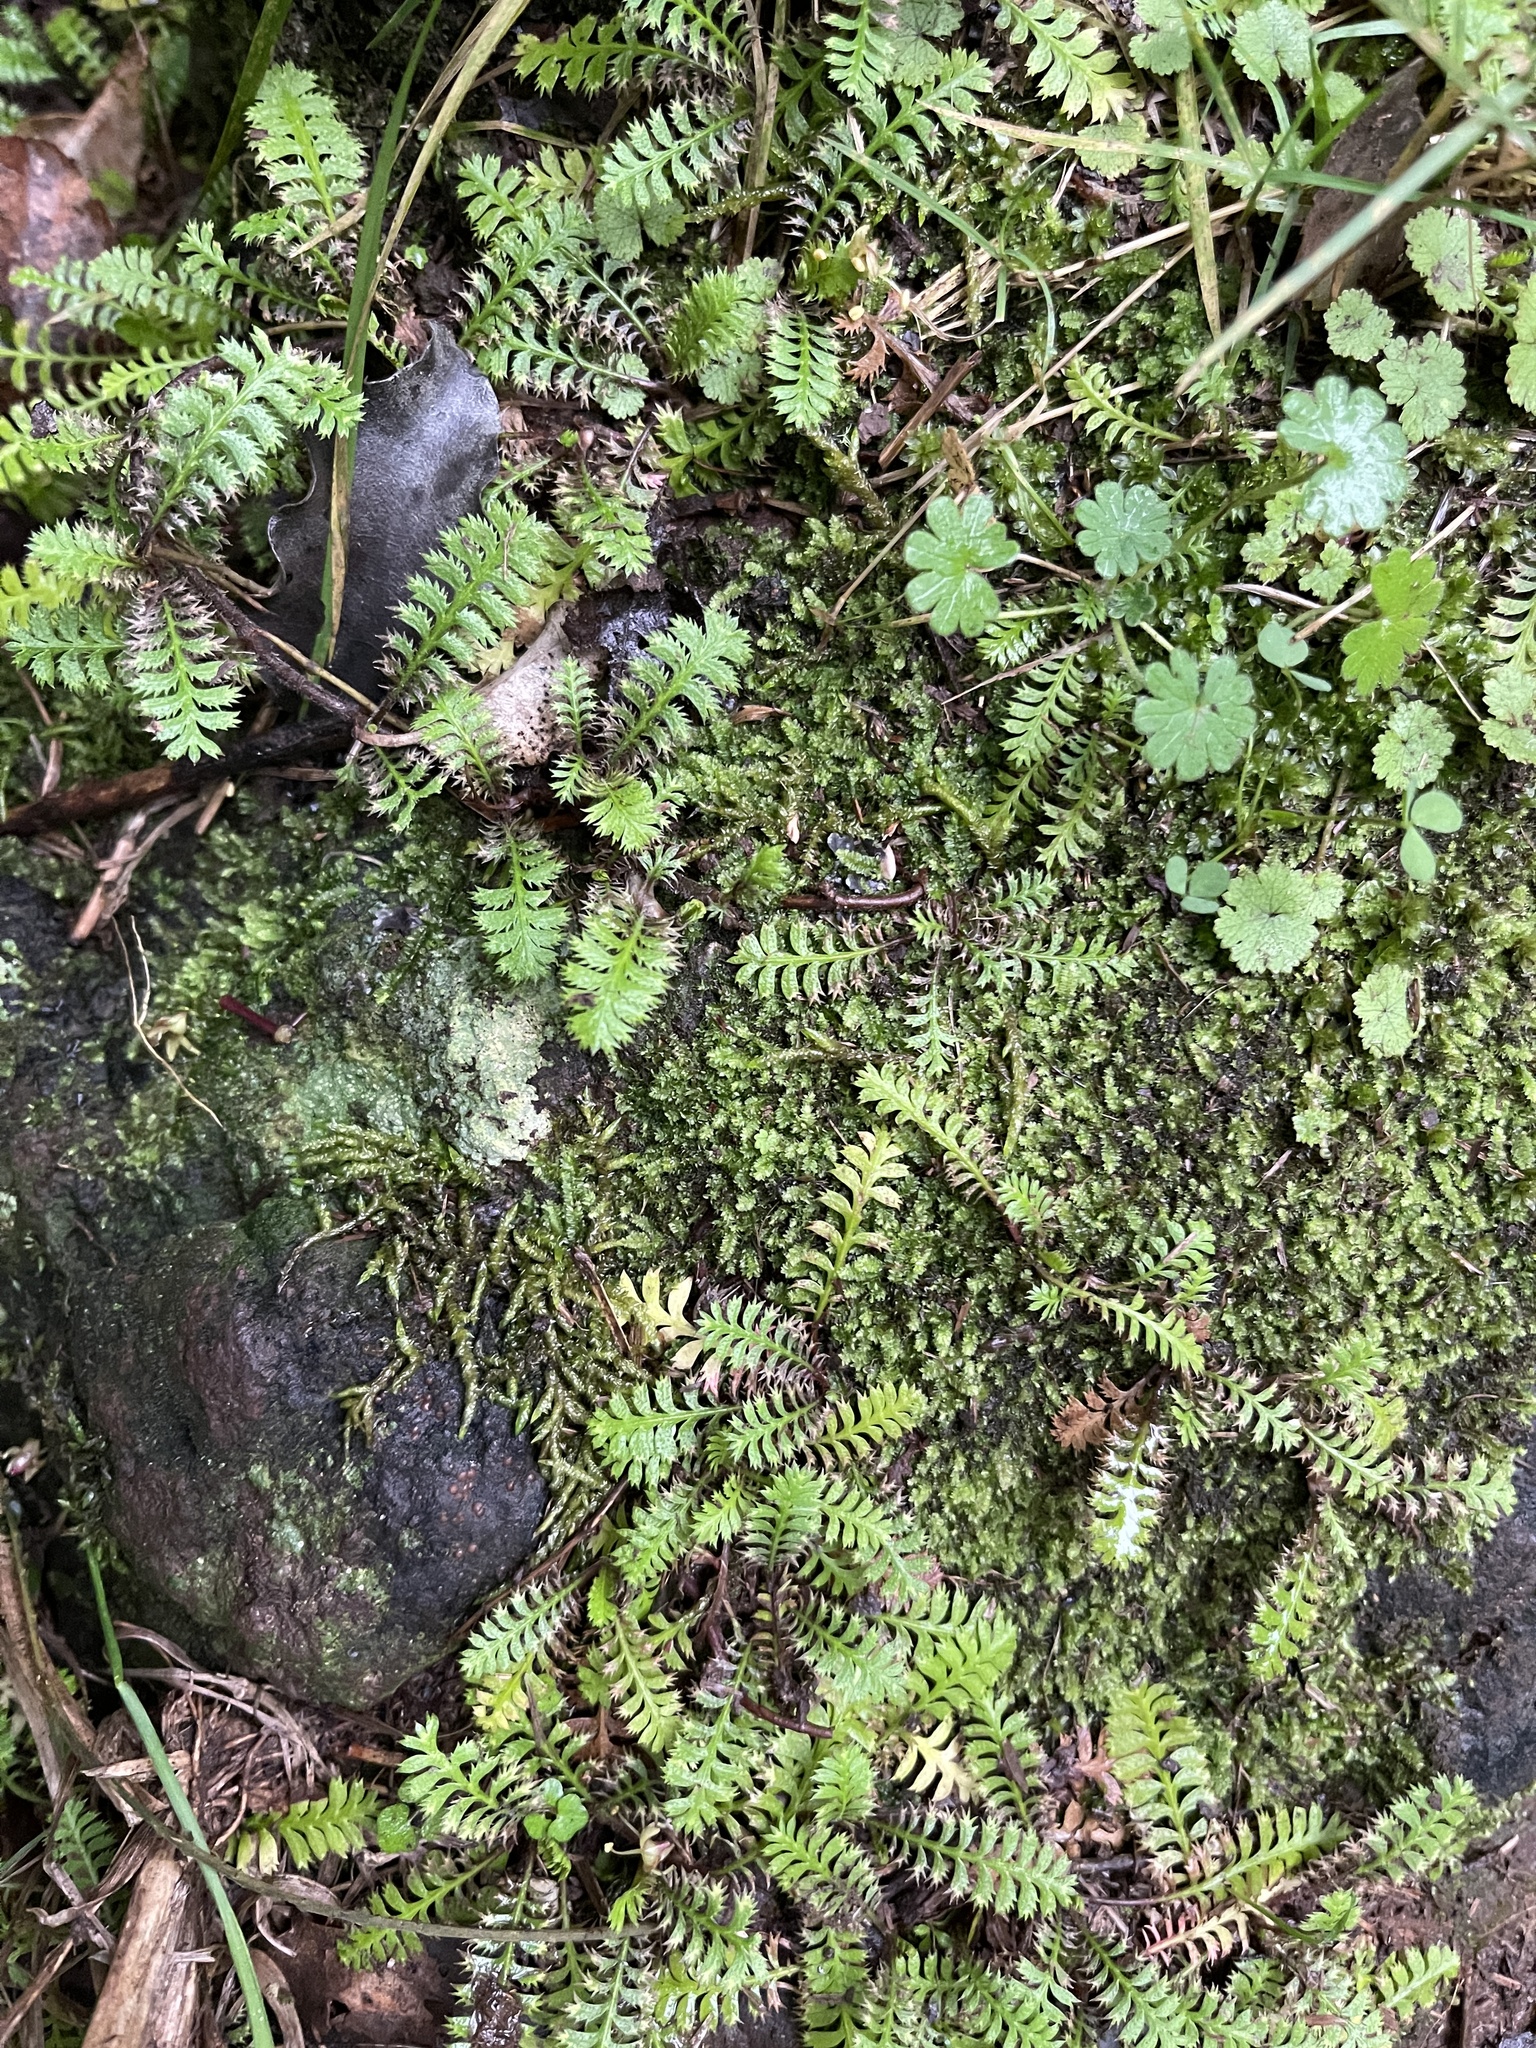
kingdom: Plantae
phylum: Tracheophyta
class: Magnoliopsida
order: Asterales
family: Asteraceae
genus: Leptinella
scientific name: Leptinella squalida
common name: New zealand brass-buttons
